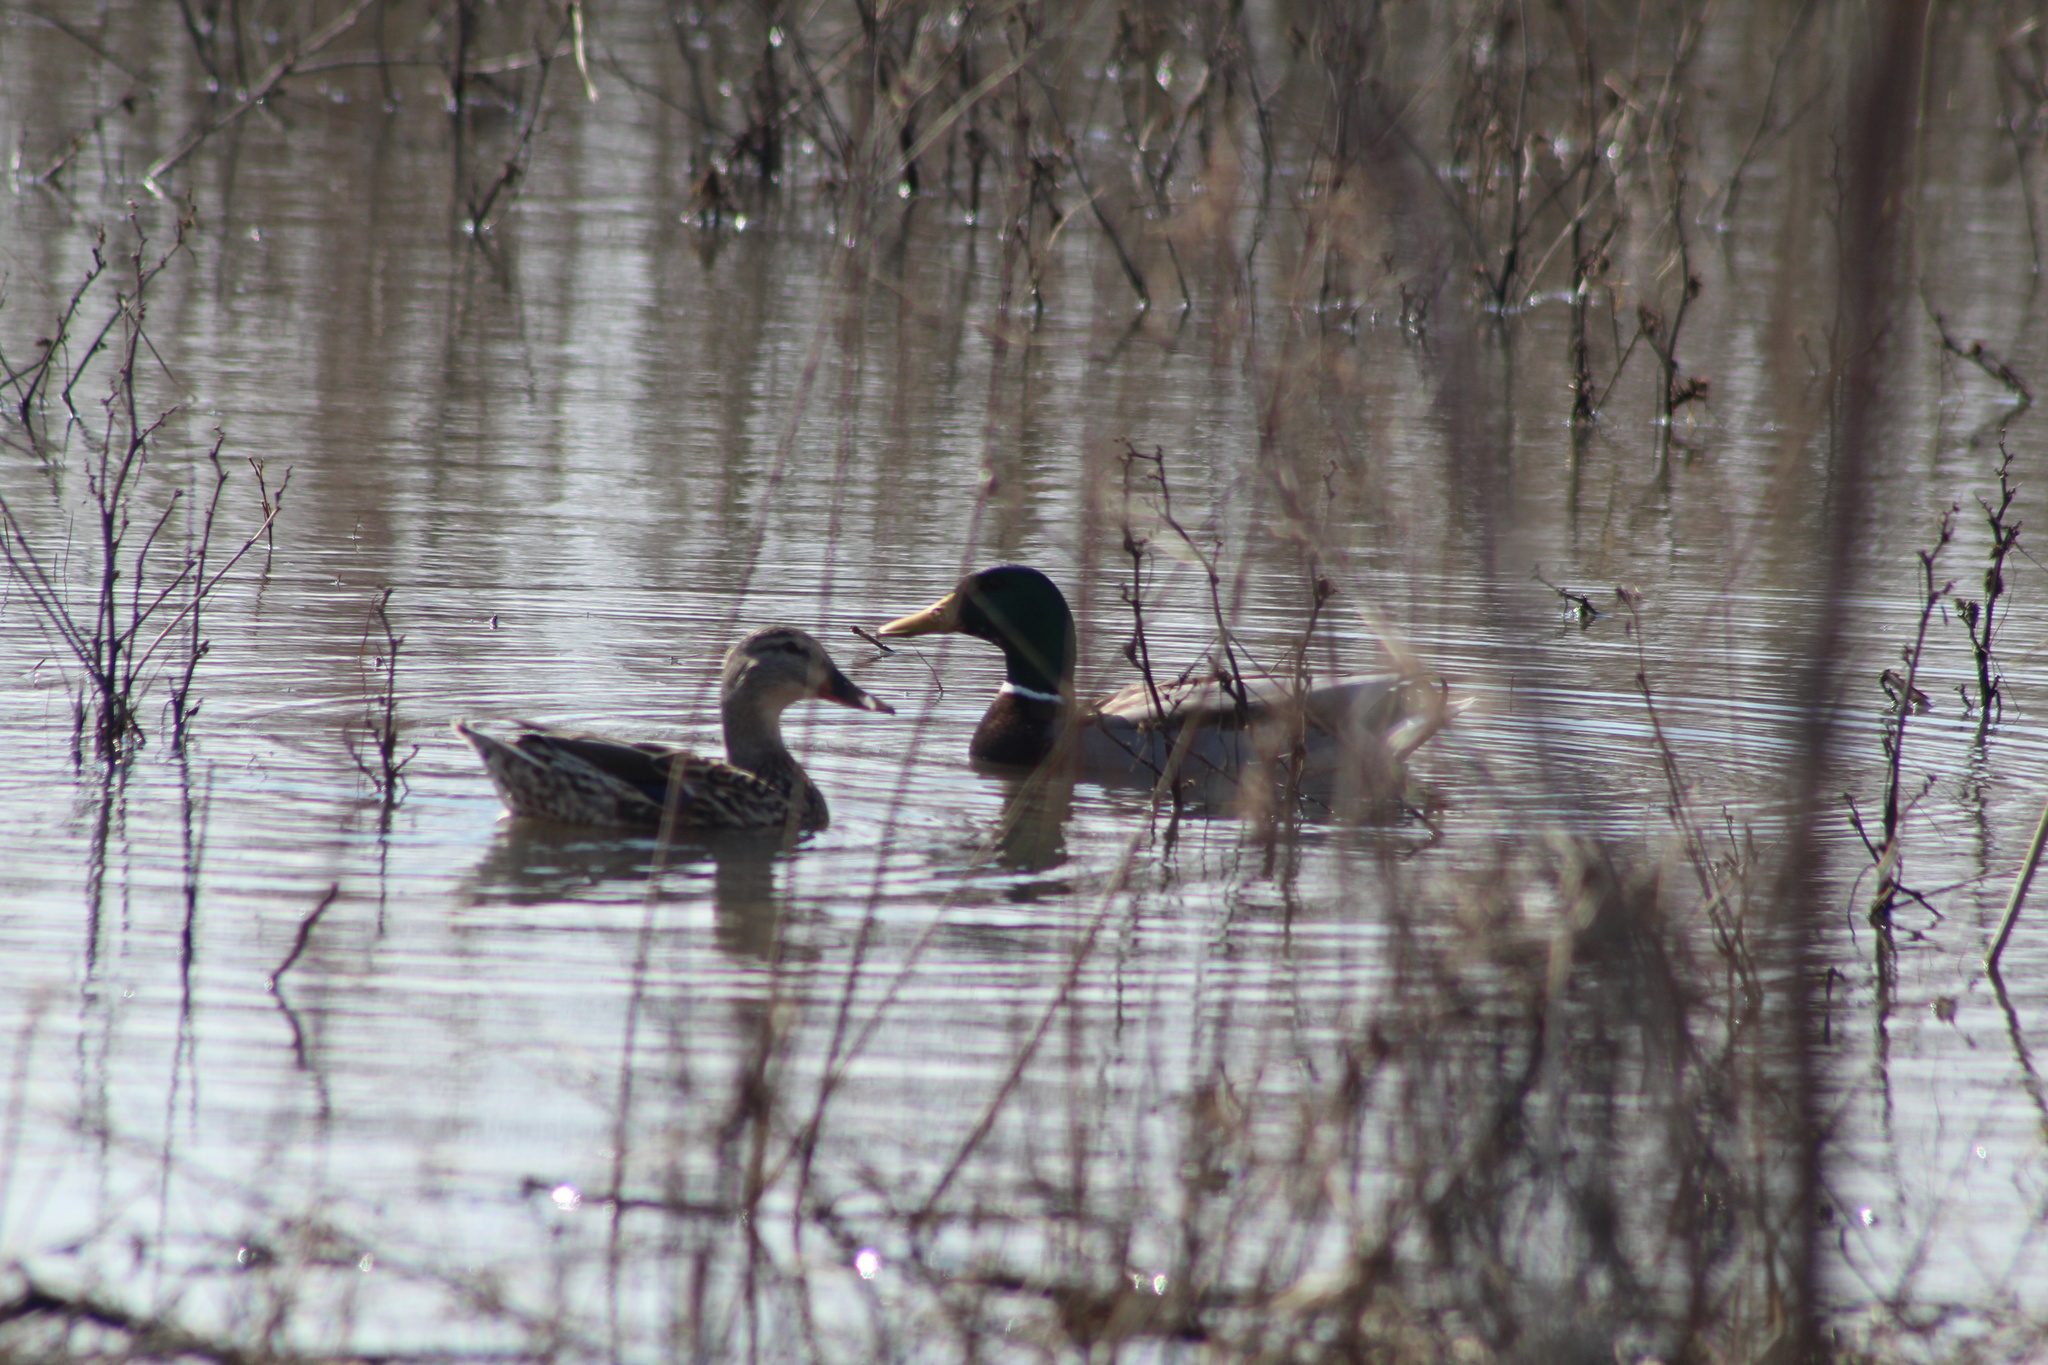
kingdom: Animalia
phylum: Chordata
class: Aves
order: Anseriformes
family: Anatidae
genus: Anas
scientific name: Anas platyrhynchos
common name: Mallard
